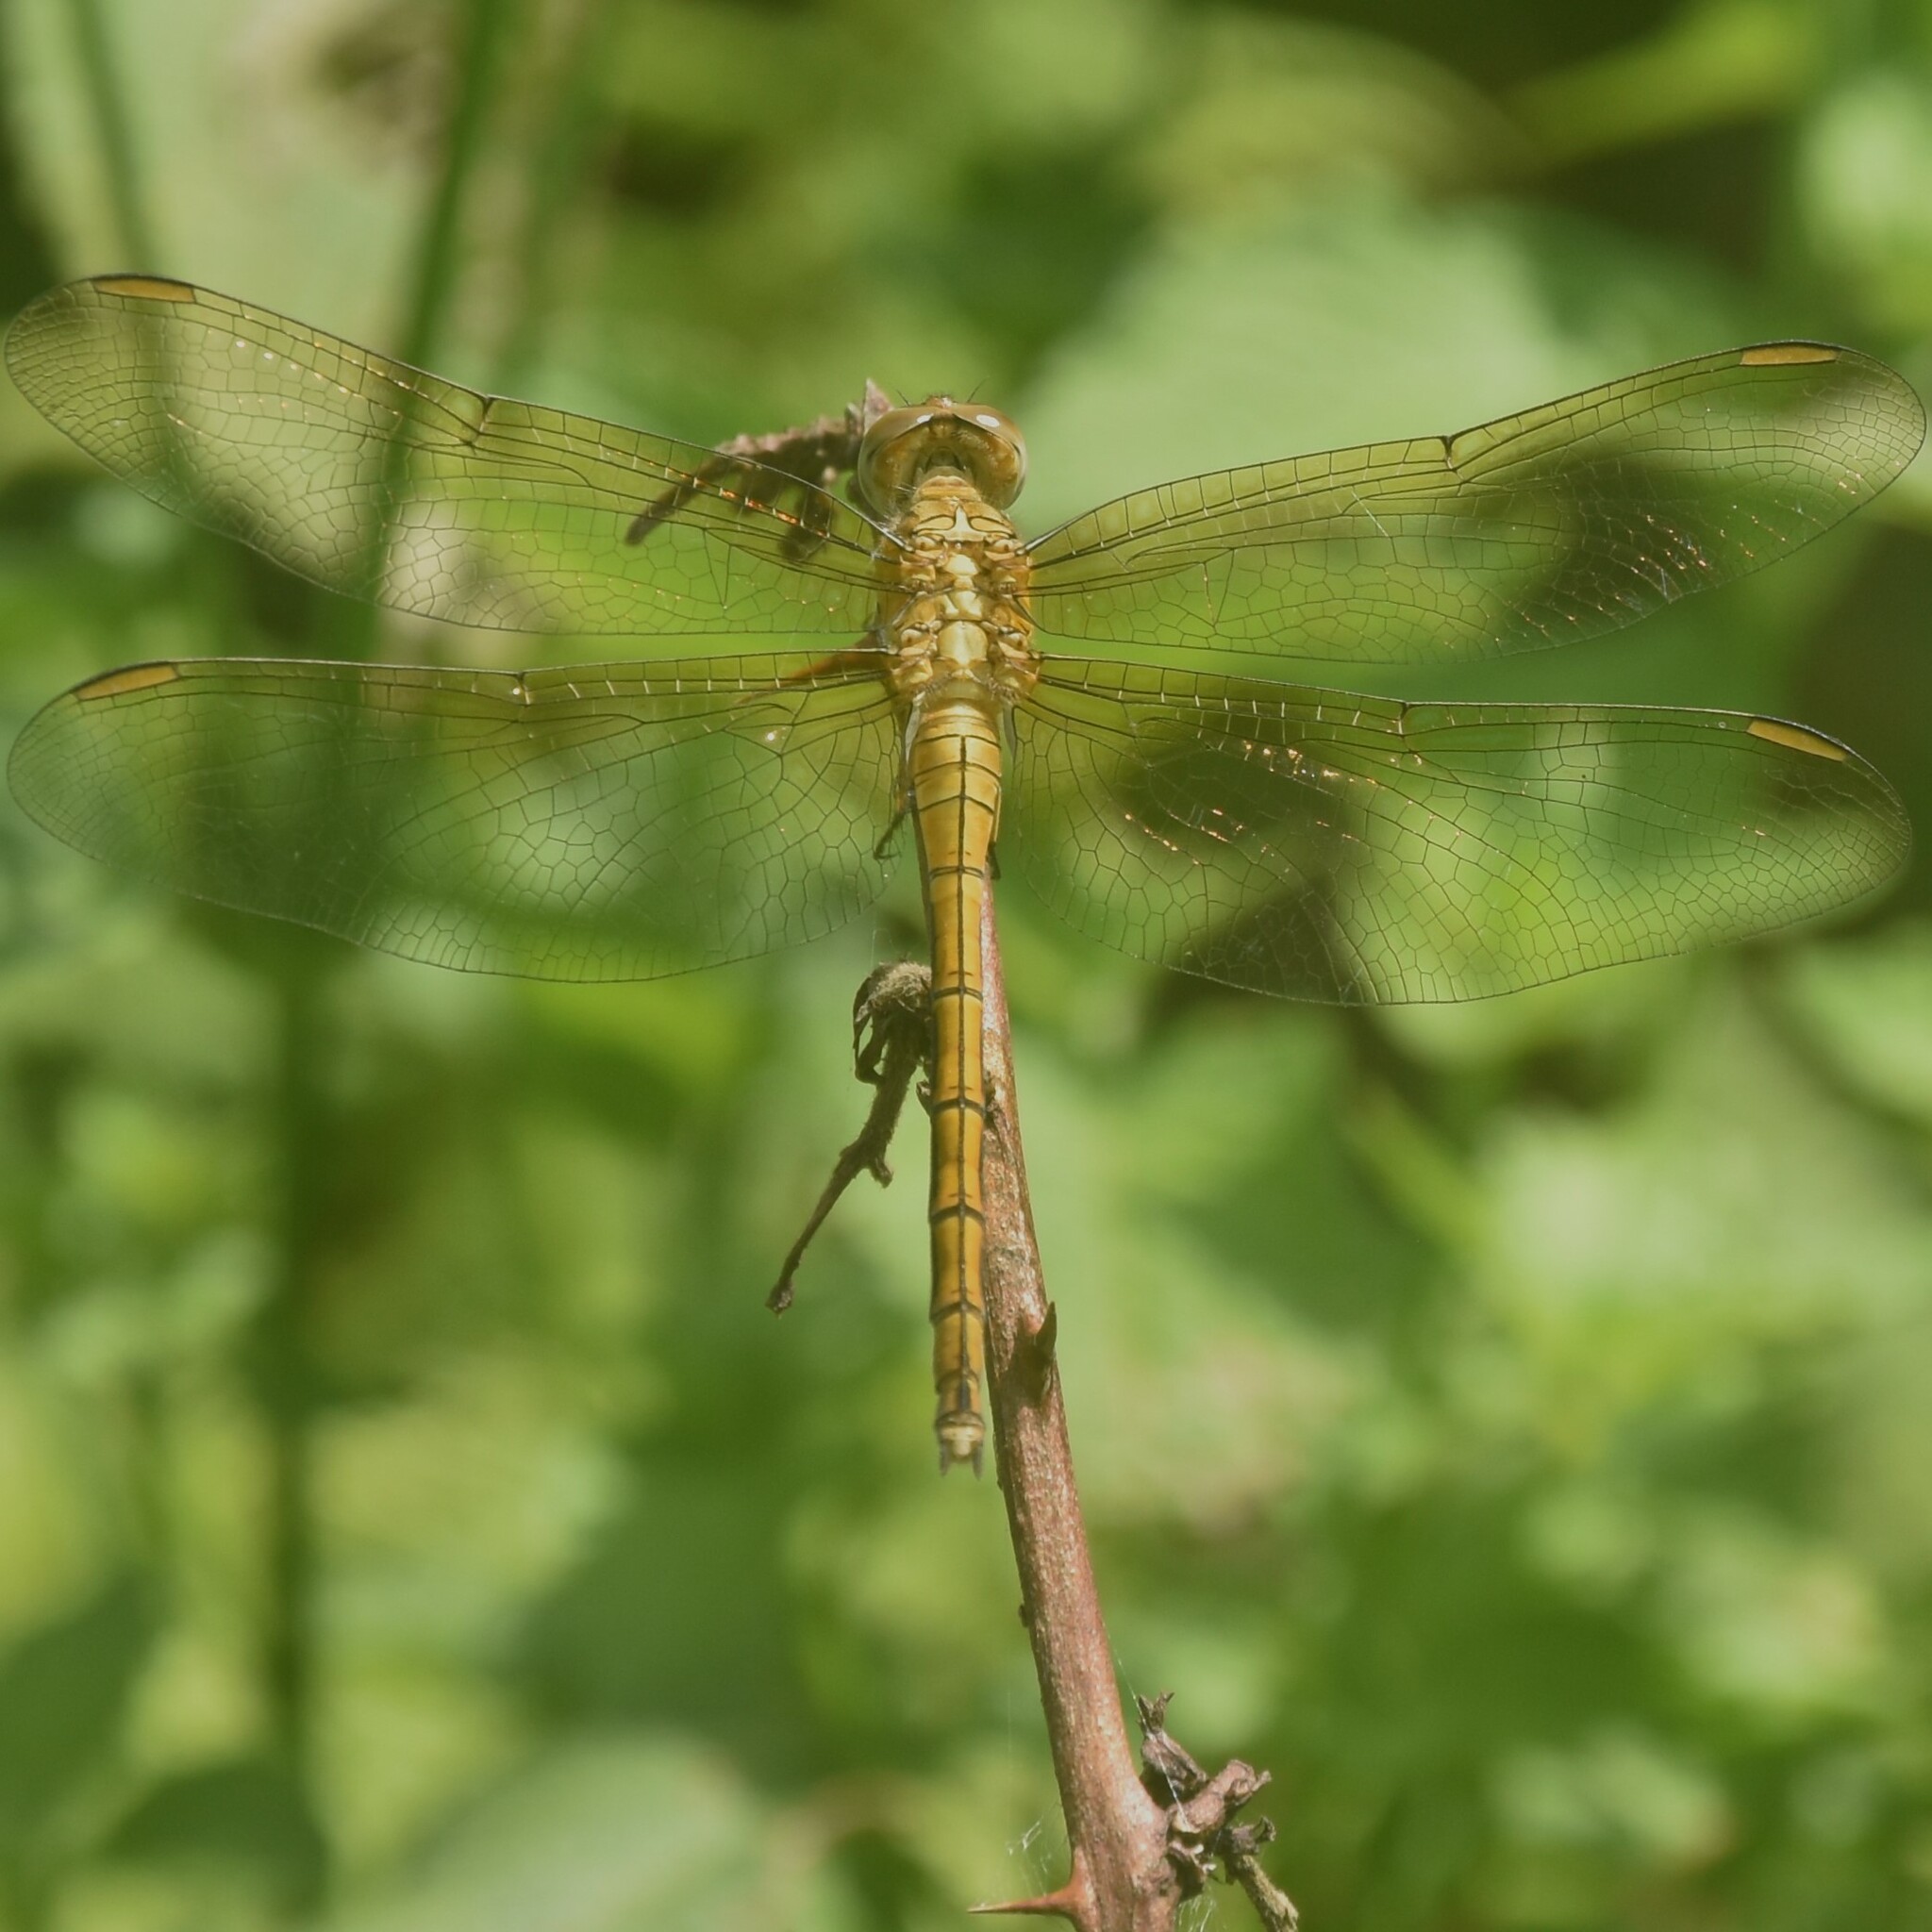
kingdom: Animalia
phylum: Arthropoda
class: Insecta
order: Odonata
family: Libellulidae
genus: Orthetrum
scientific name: Orthetrum luzonicum
